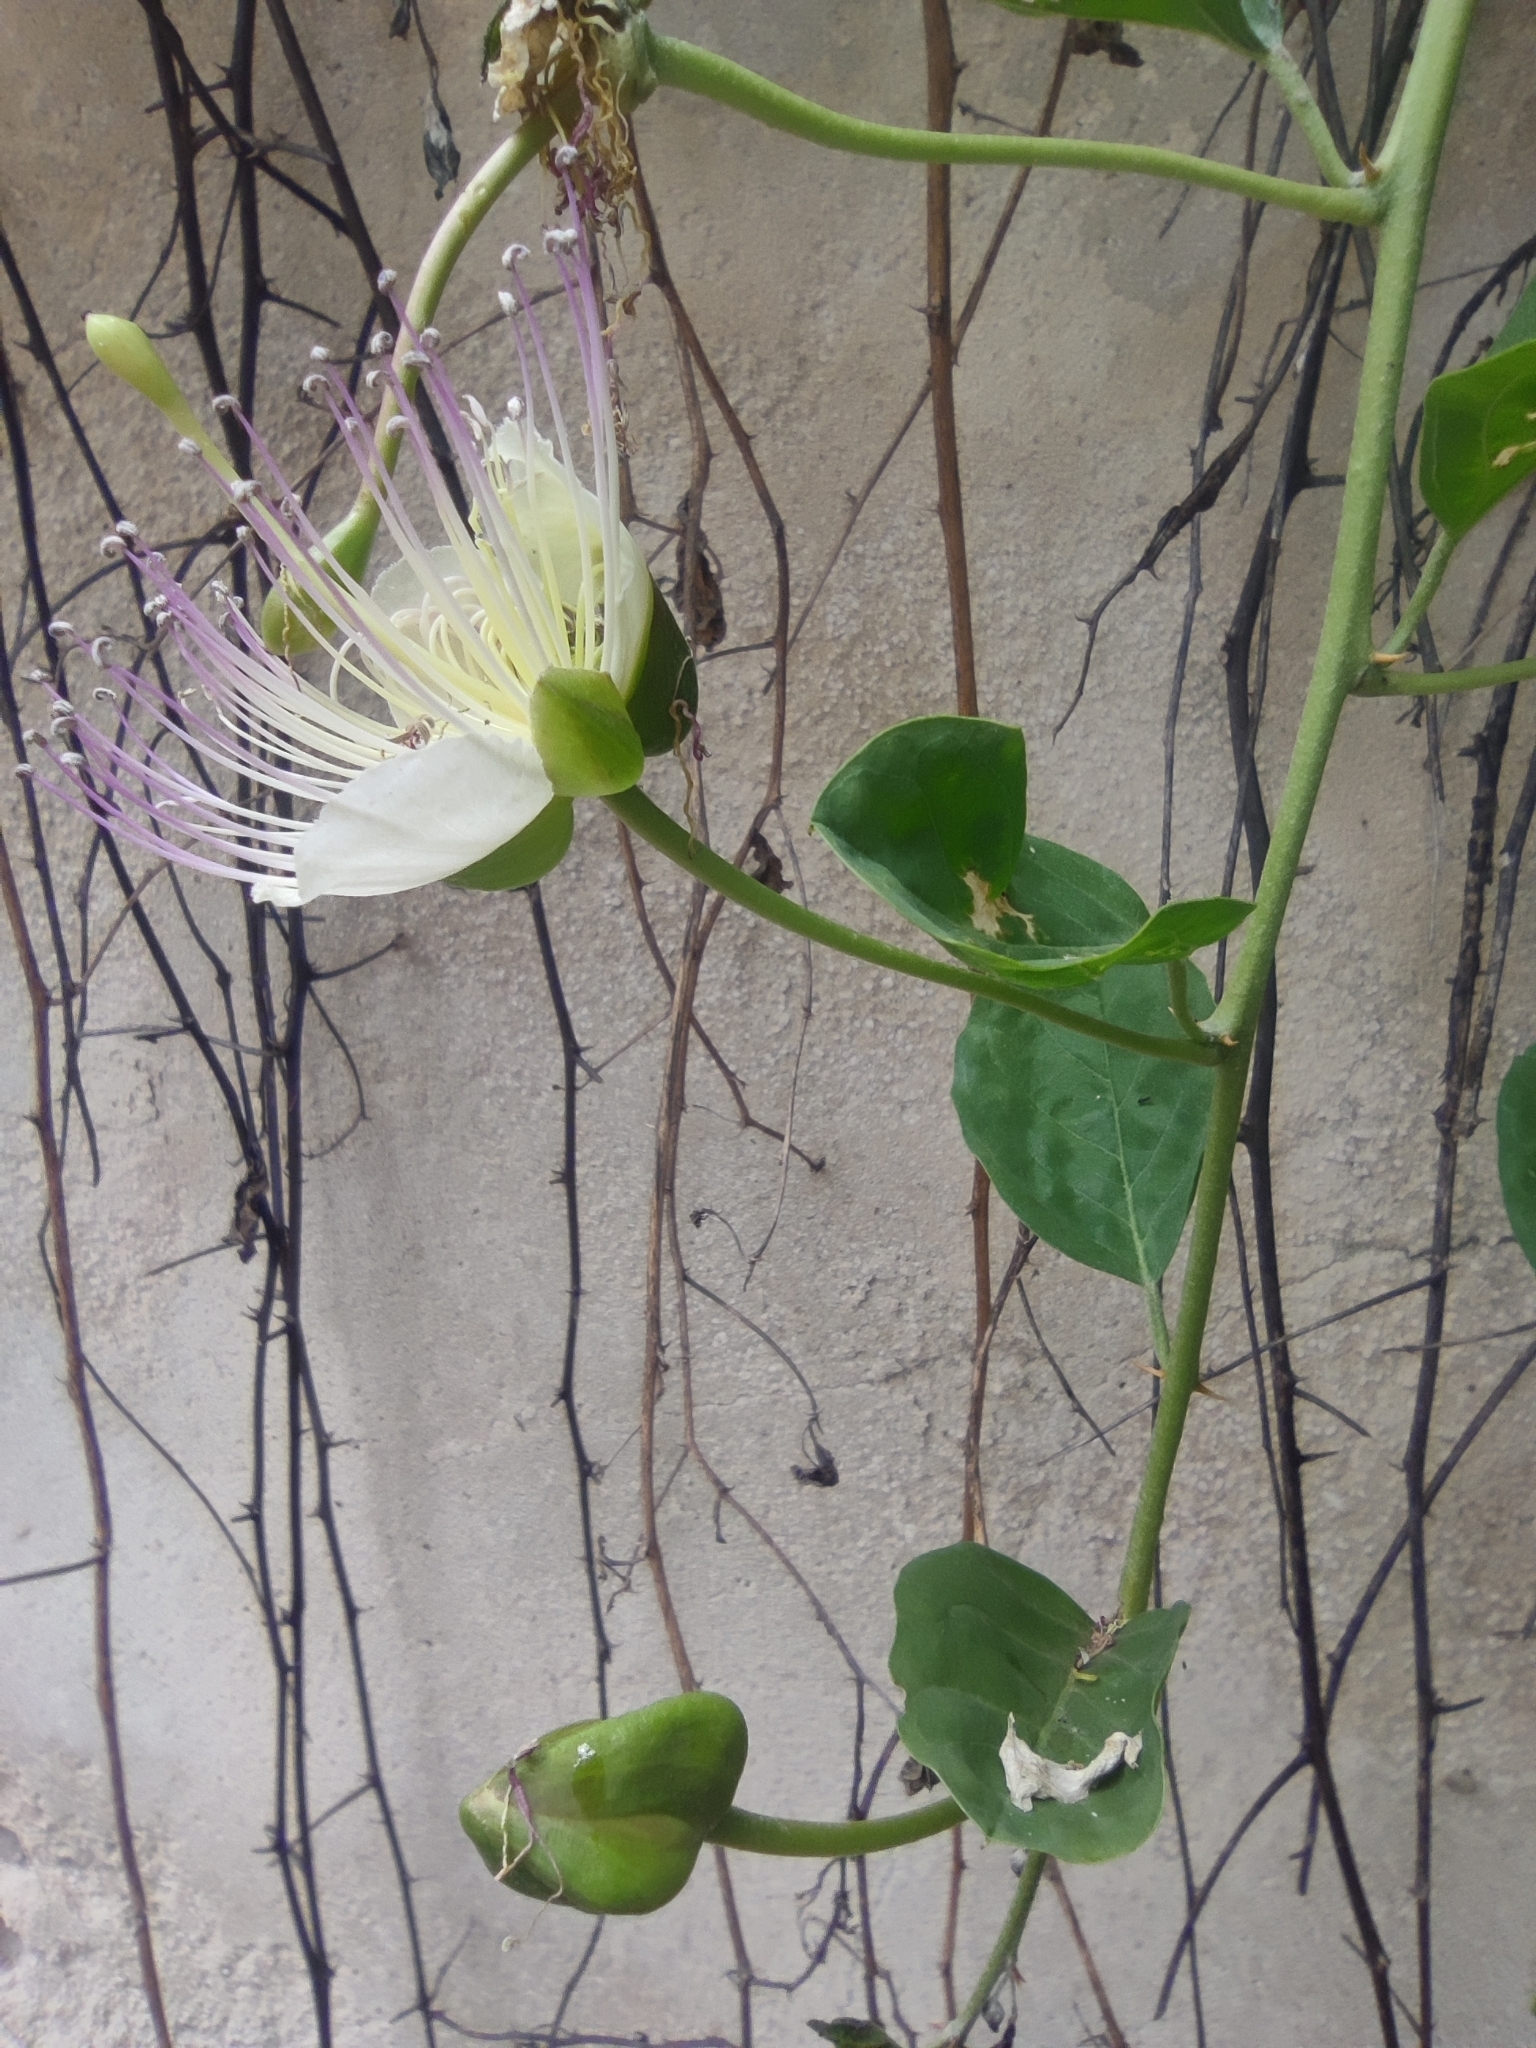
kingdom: Plantae
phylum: Tracheophyta
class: Magnoliopsida
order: Brassicales
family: Capparaceae
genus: Capparis
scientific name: Capparis spinosa
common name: Caper
